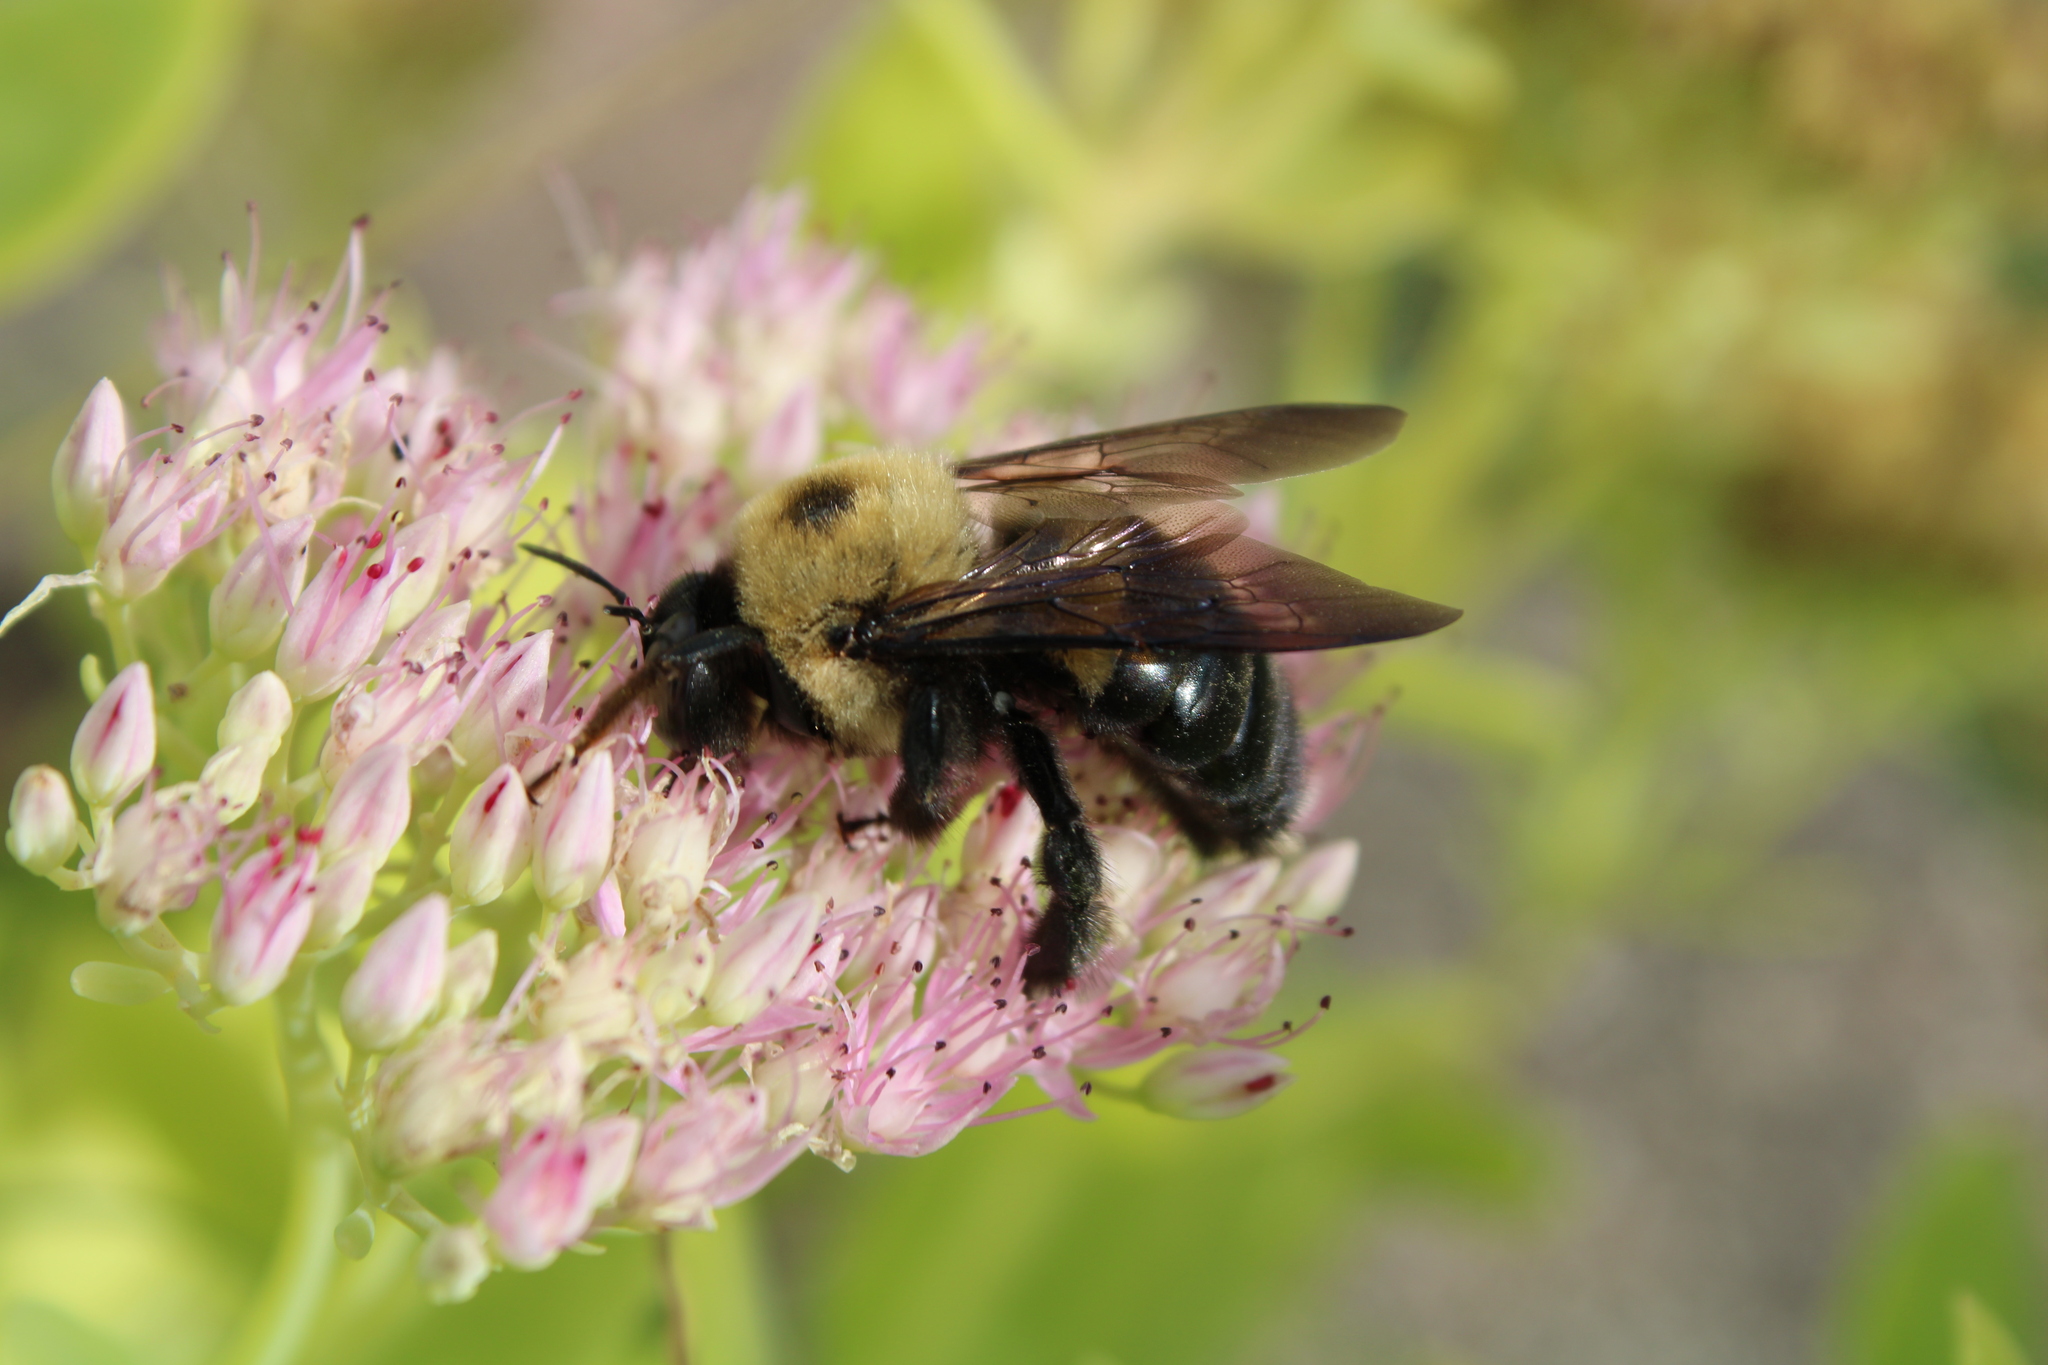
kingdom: Animalia
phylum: Arthropoda
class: Insecta
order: Hymenoptera
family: Apidae
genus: Xylocopa
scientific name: Xylocopa virginica
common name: Carpenter bee
